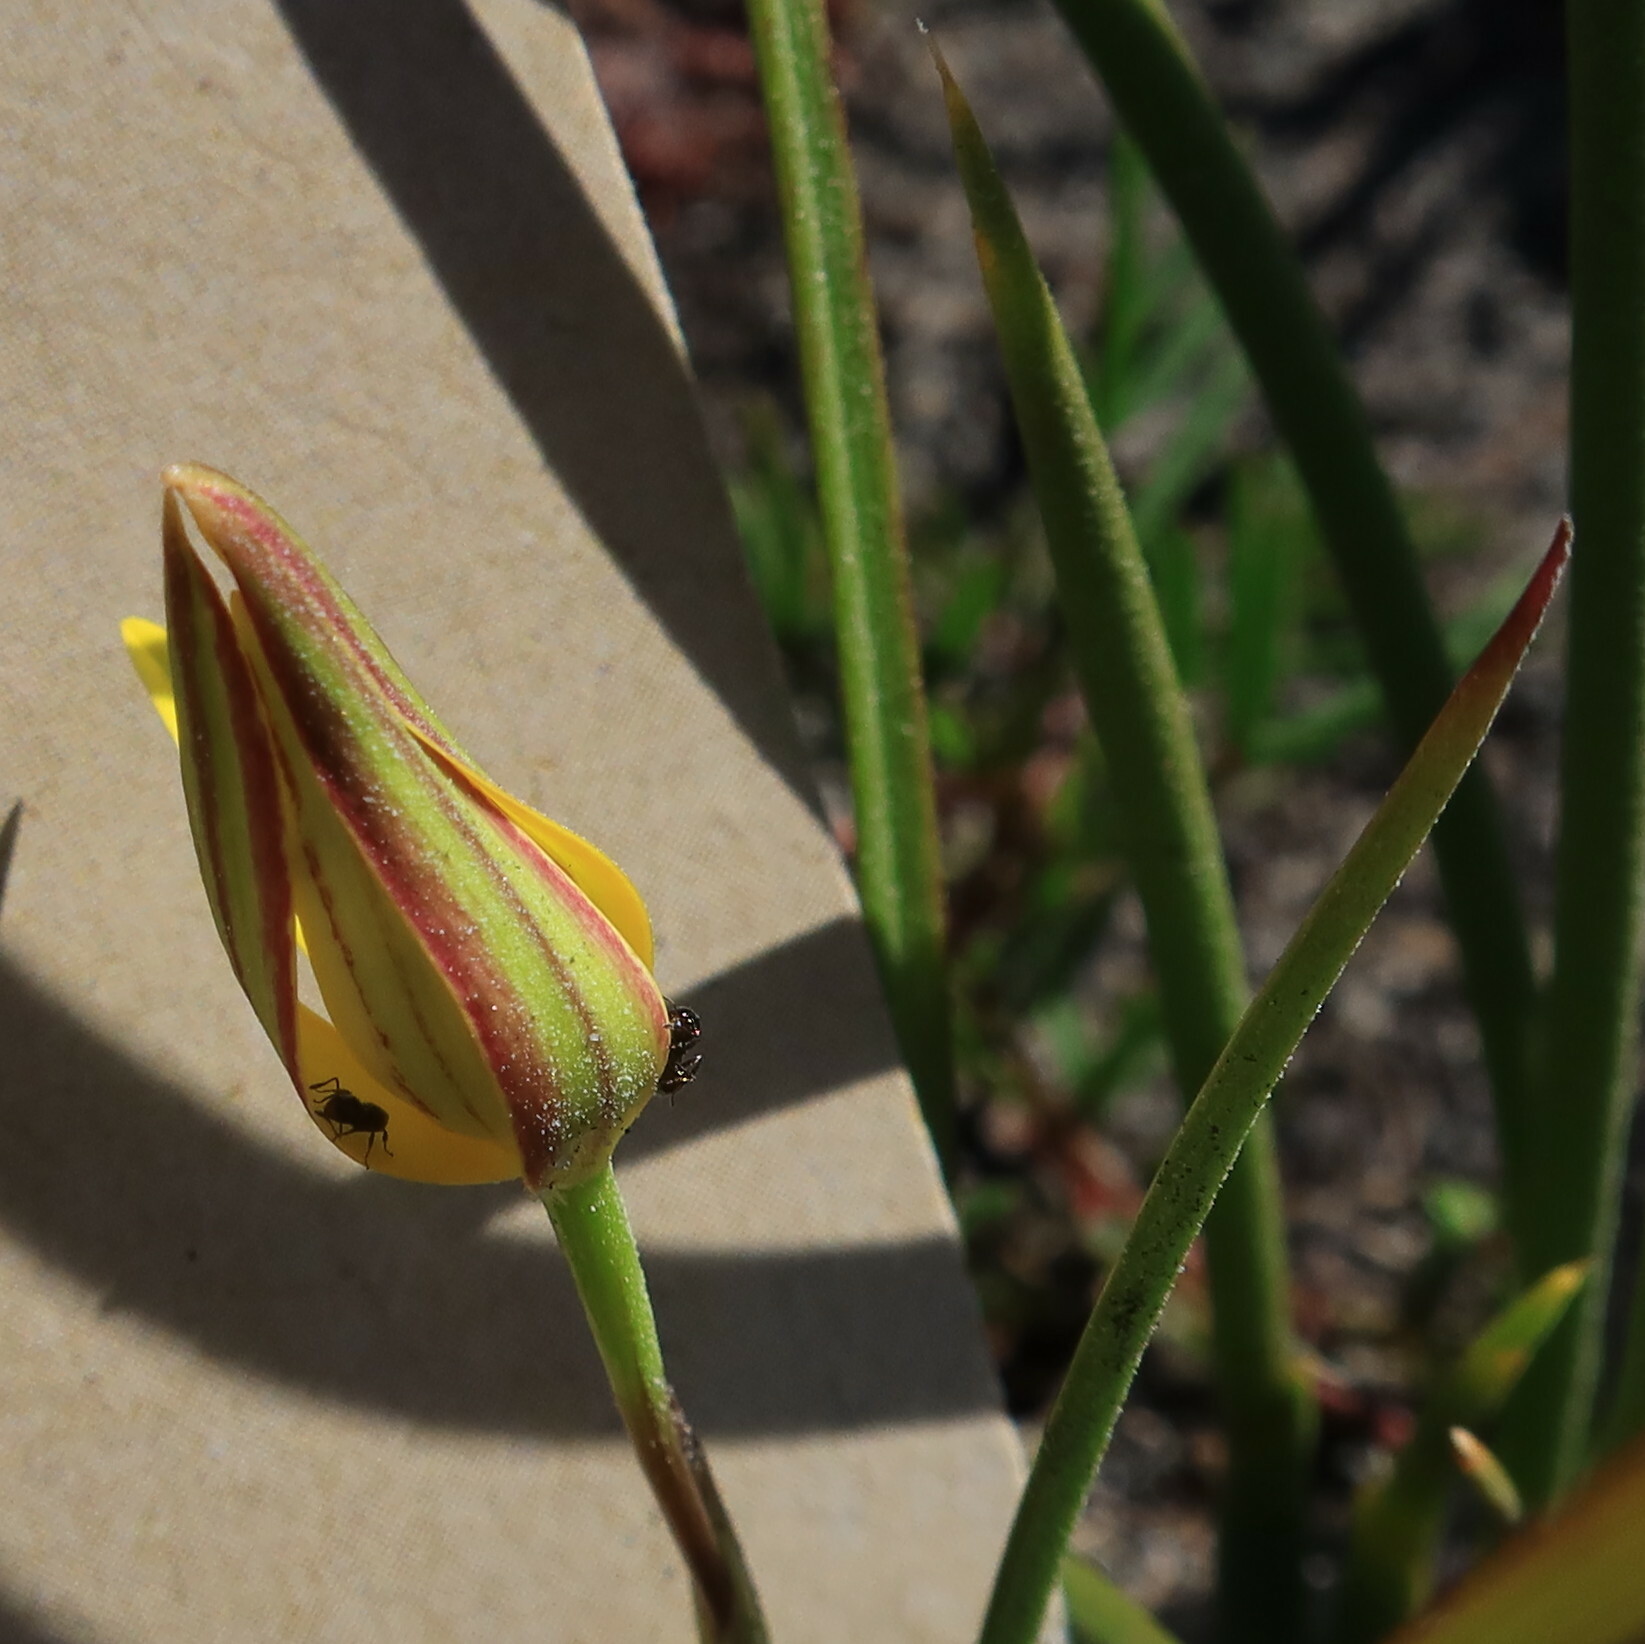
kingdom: Plantae
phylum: Tracheophyta
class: Liliopsida
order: Asparagales
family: Hypoxidaceae
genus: Pauridia
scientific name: Pauridia capensis
